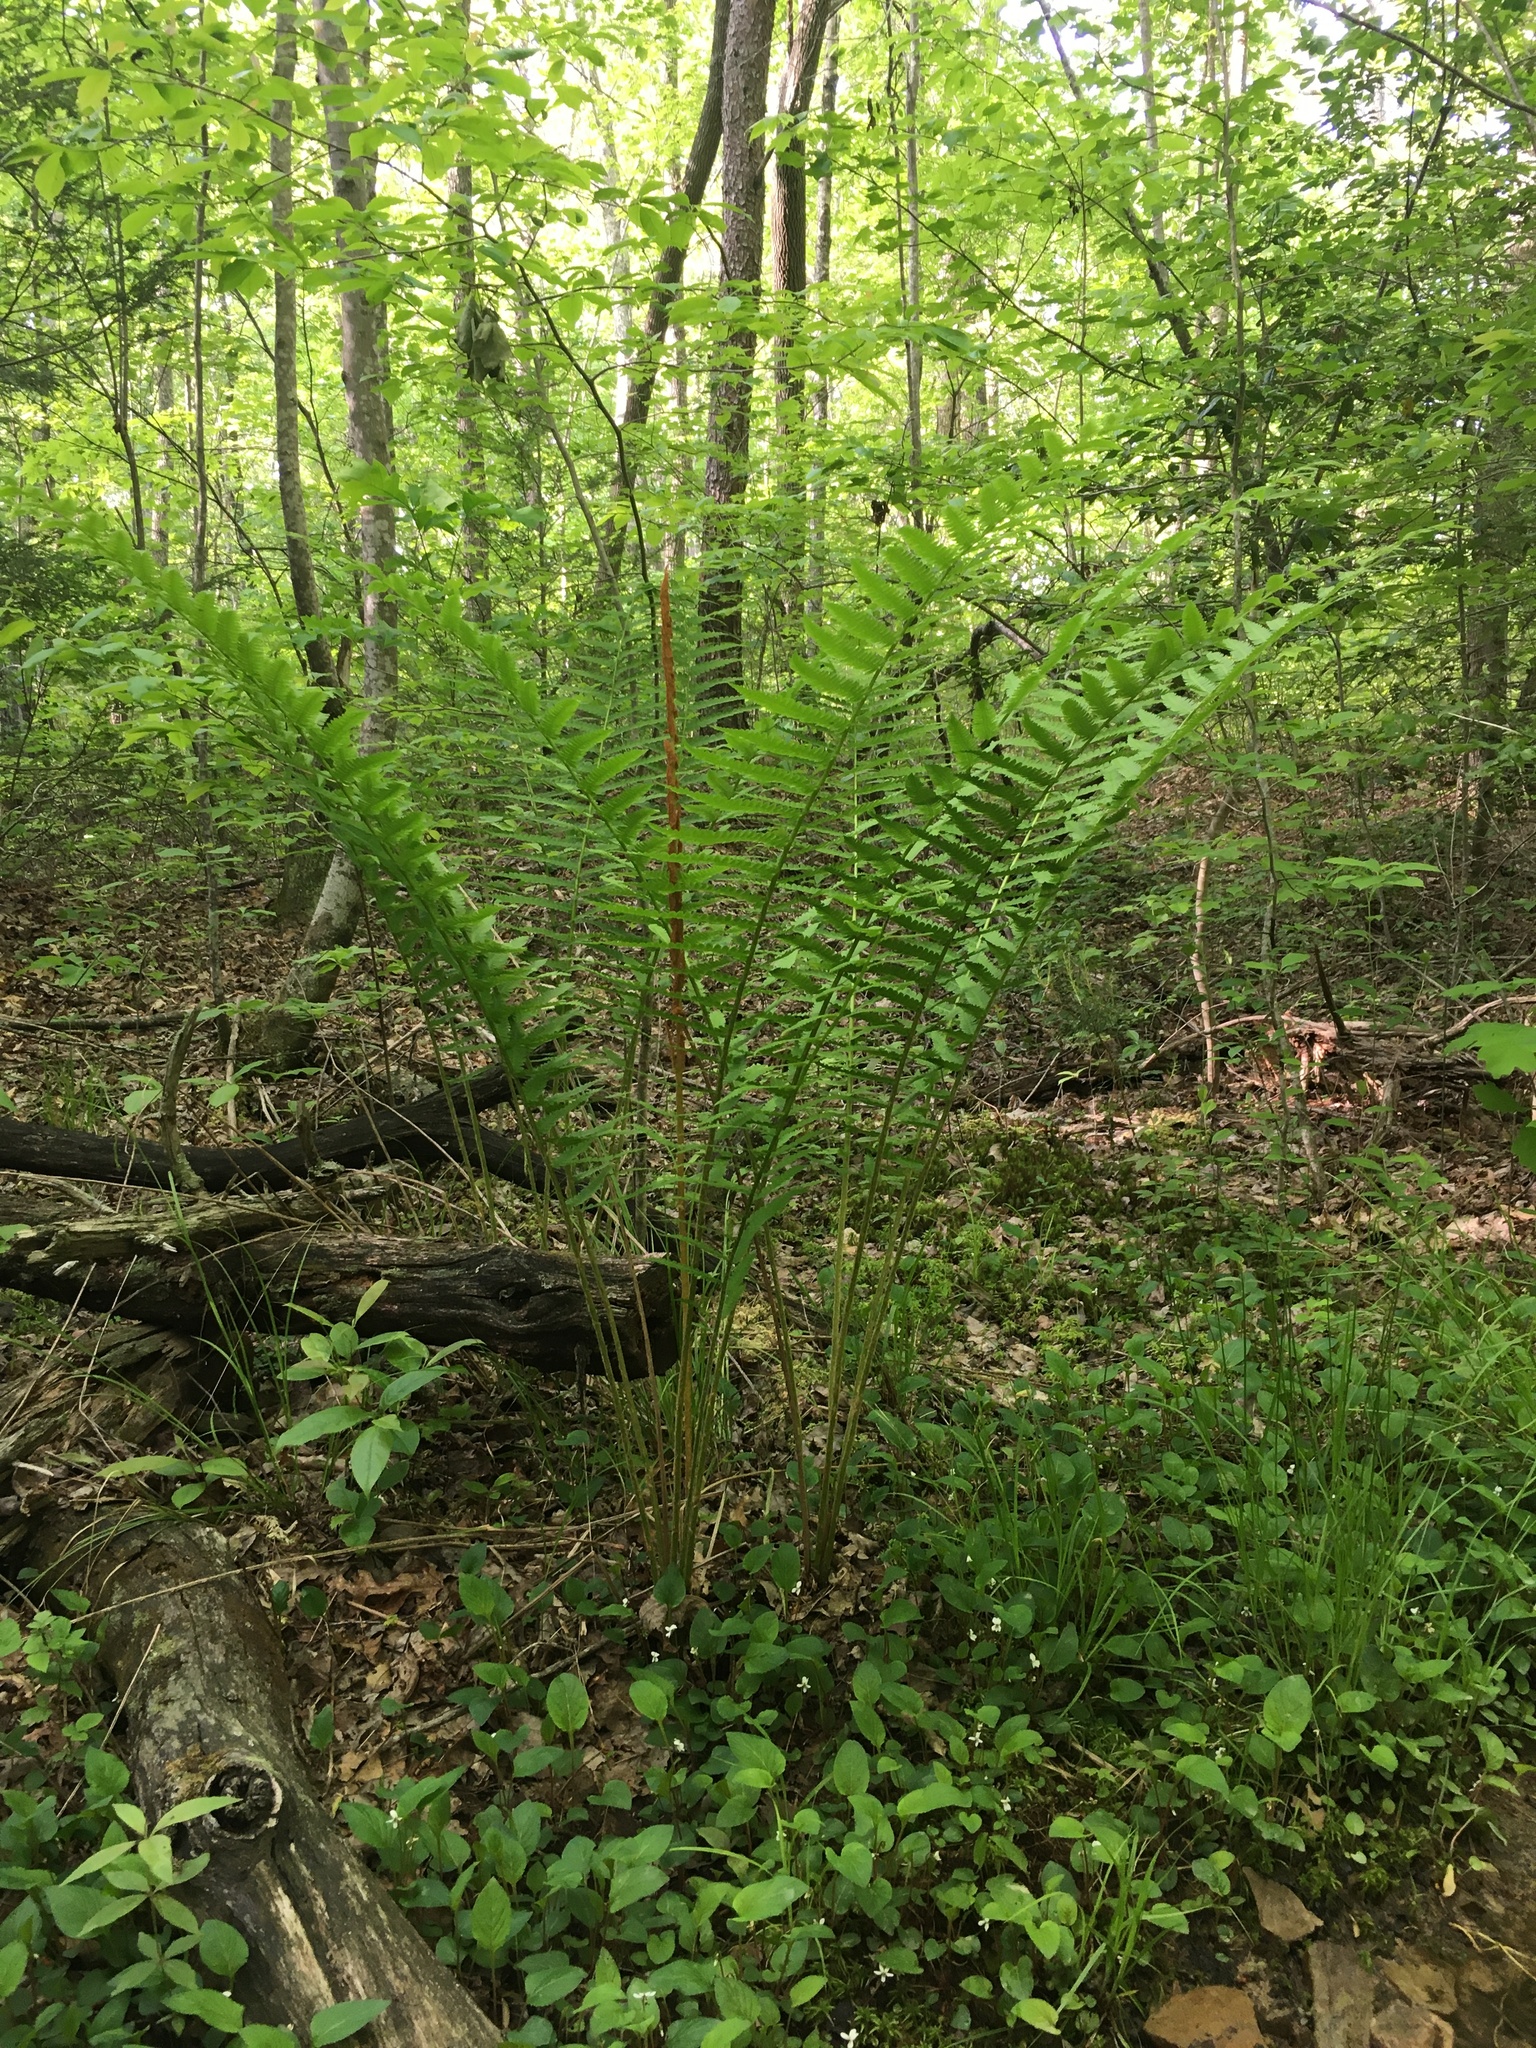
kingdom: Plantae
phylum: Tracheophyta
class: Polypodiopsida
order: Osmundales
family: Osmundaceae
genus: Osmundastrum
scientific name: Osmundastrum cinnamomeum
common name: Cinnamon fern
